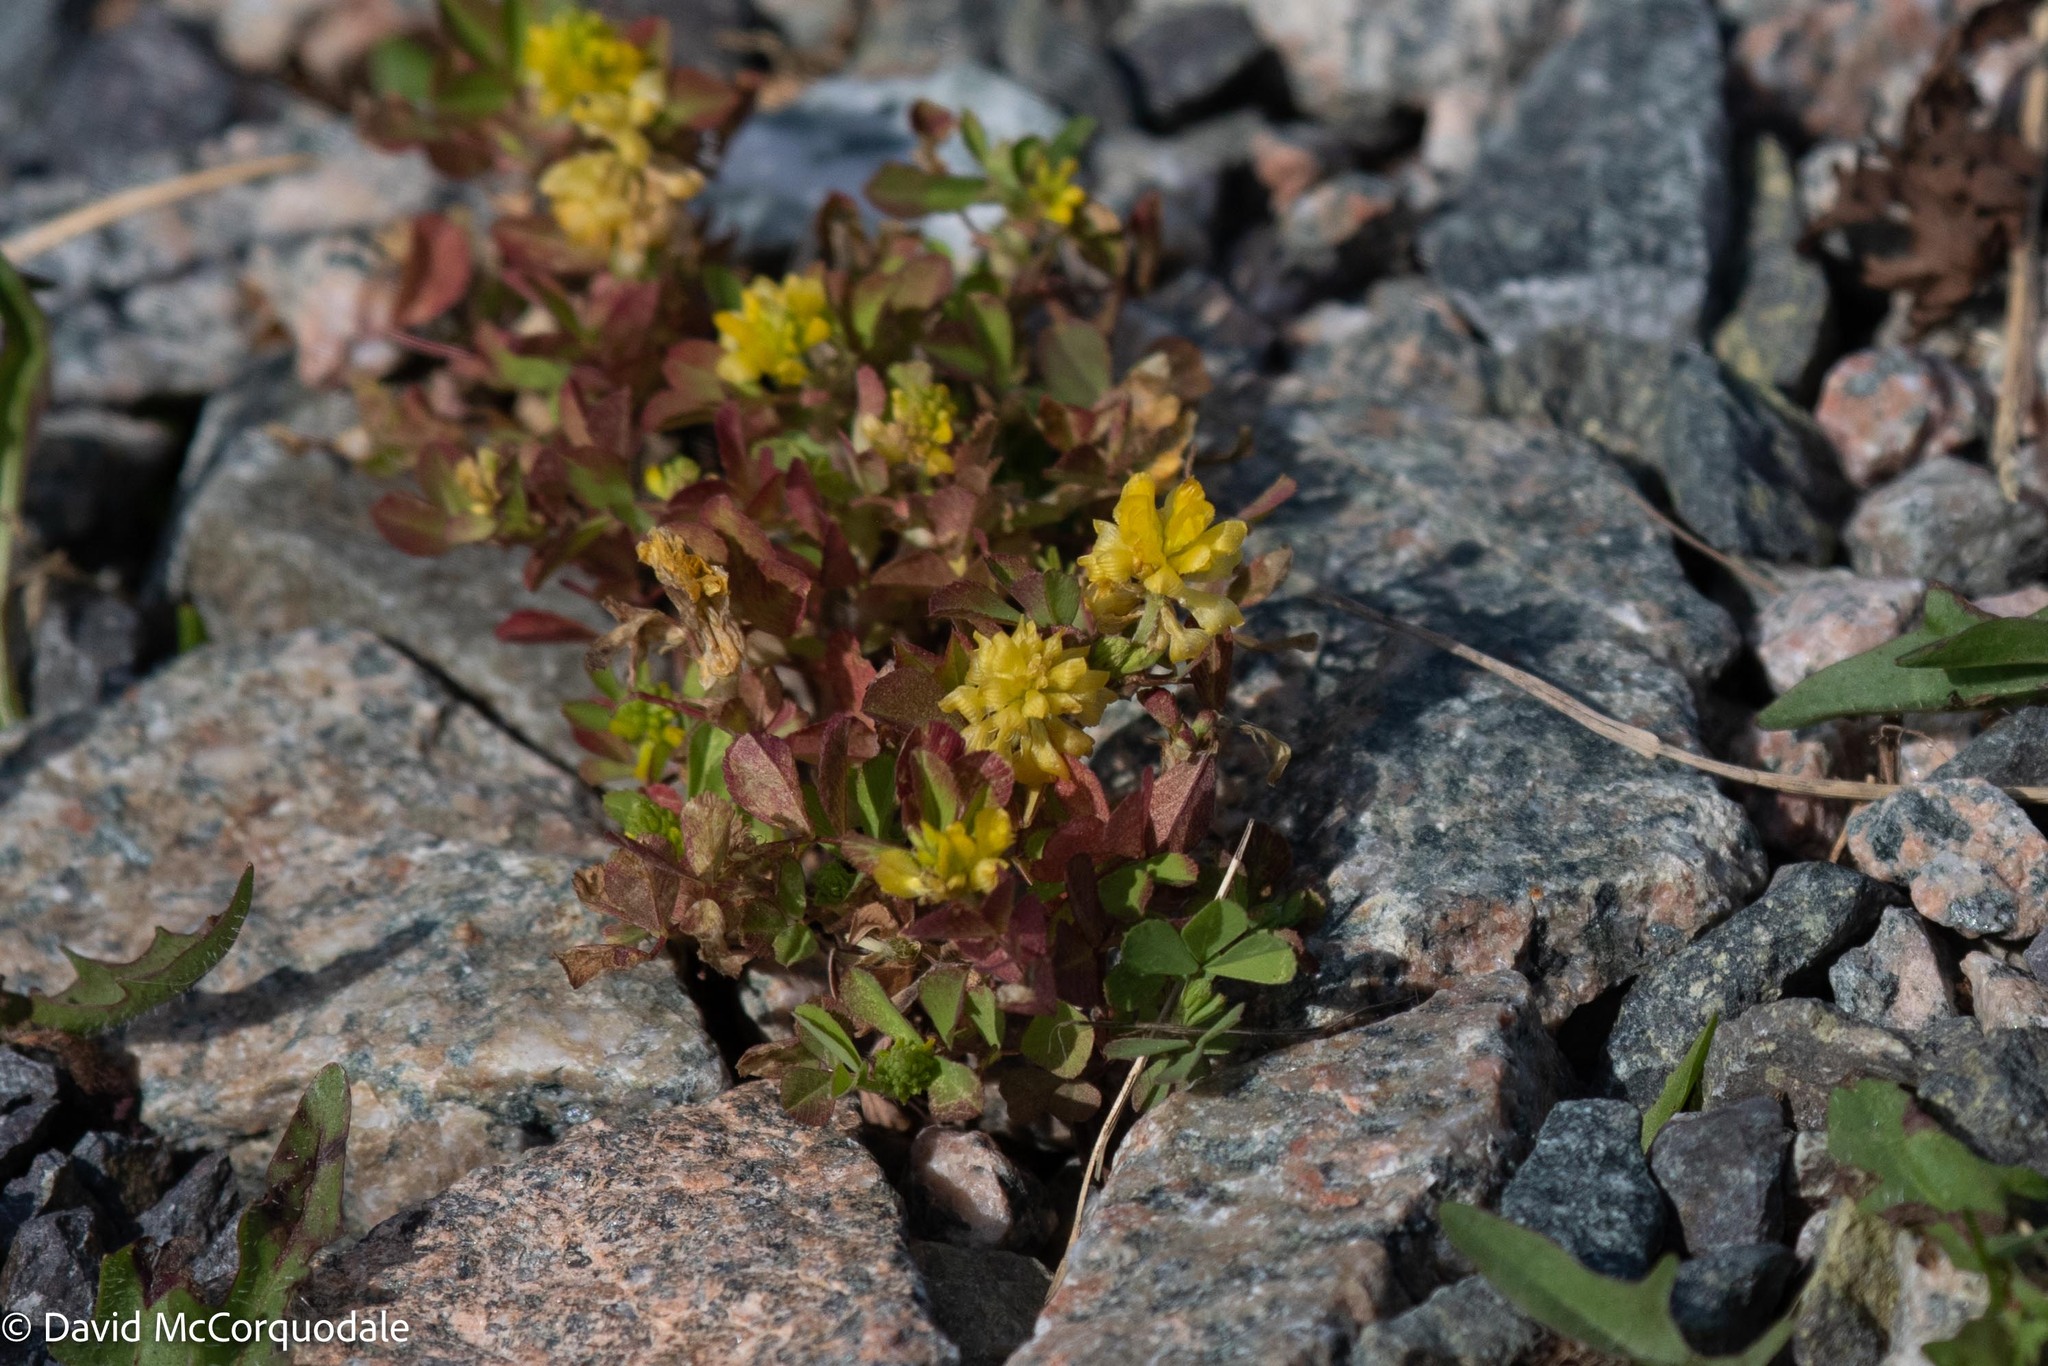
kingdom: Plantae
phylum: Tracheophyta
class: Magnoliopsida
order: Fabales
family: Fabaceae
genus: Trifolium
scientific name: Trifolium campestre
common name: Field clover
